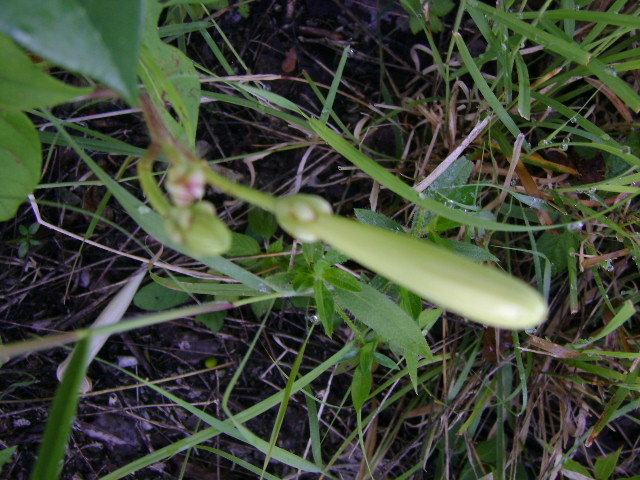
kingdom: Plantae
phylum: Tracheophyta
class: Magnoliopsida
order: Solanales
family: Convolvulaceae
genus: Ipomoea
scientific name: Ipomoea suaveolens
